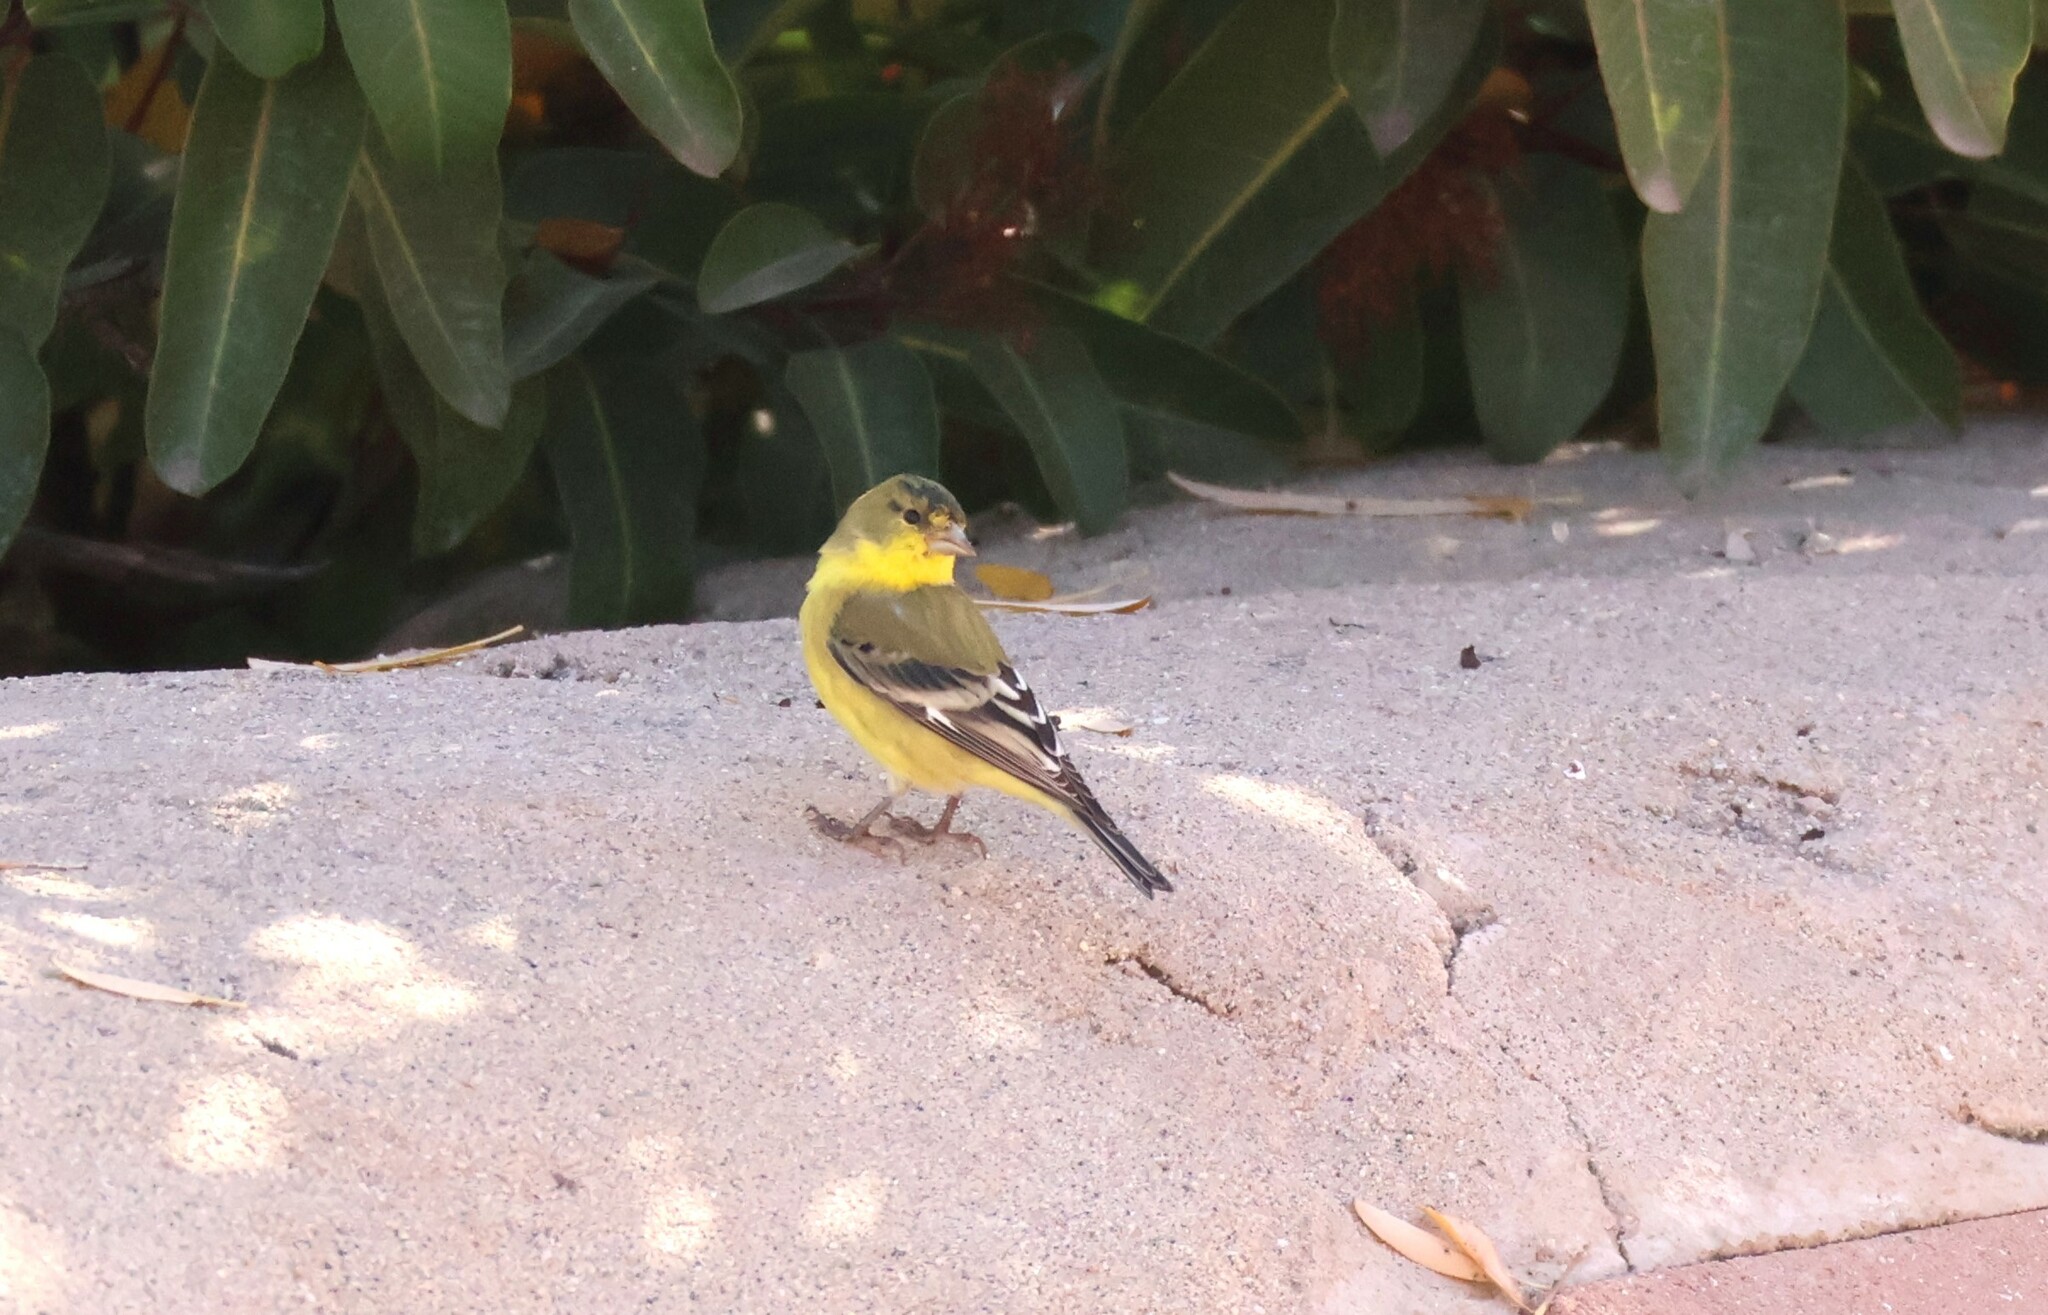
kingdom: Animalia
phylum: Chordata
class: Aves
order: Passeriformes
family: Fringillidae
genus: Spinus
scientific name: Spinus psaltria
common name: Lesser goldfinch
